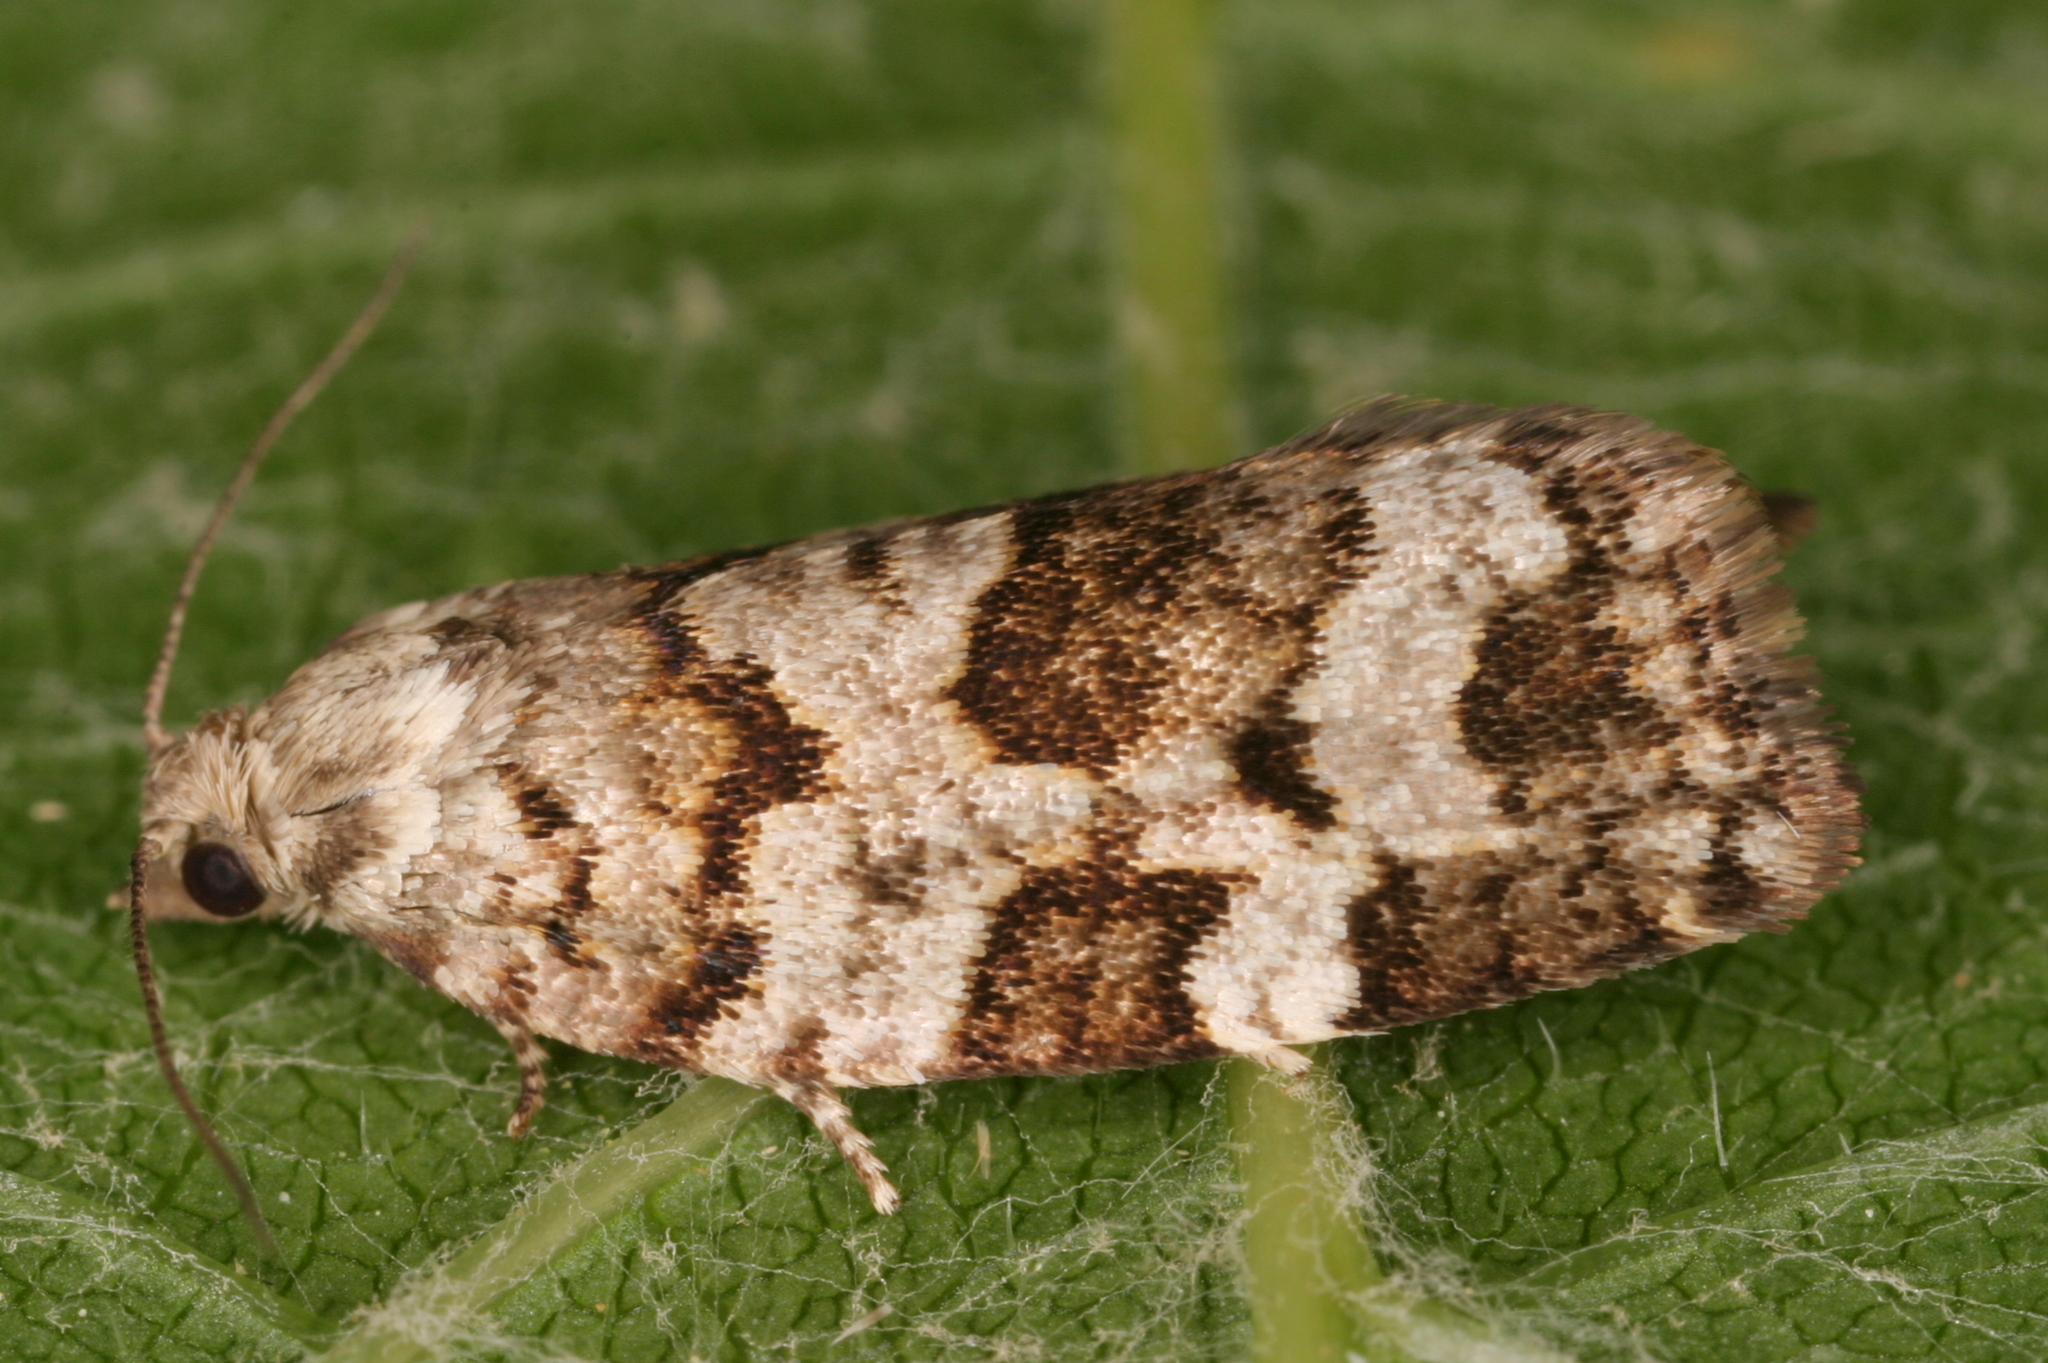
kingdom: Animalia
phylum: Arthropoda
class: Insecta
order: Lepidoptera
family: Tortricidae
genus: Dichelia
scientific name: Dichelia histrionana
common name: Tortricid moth
